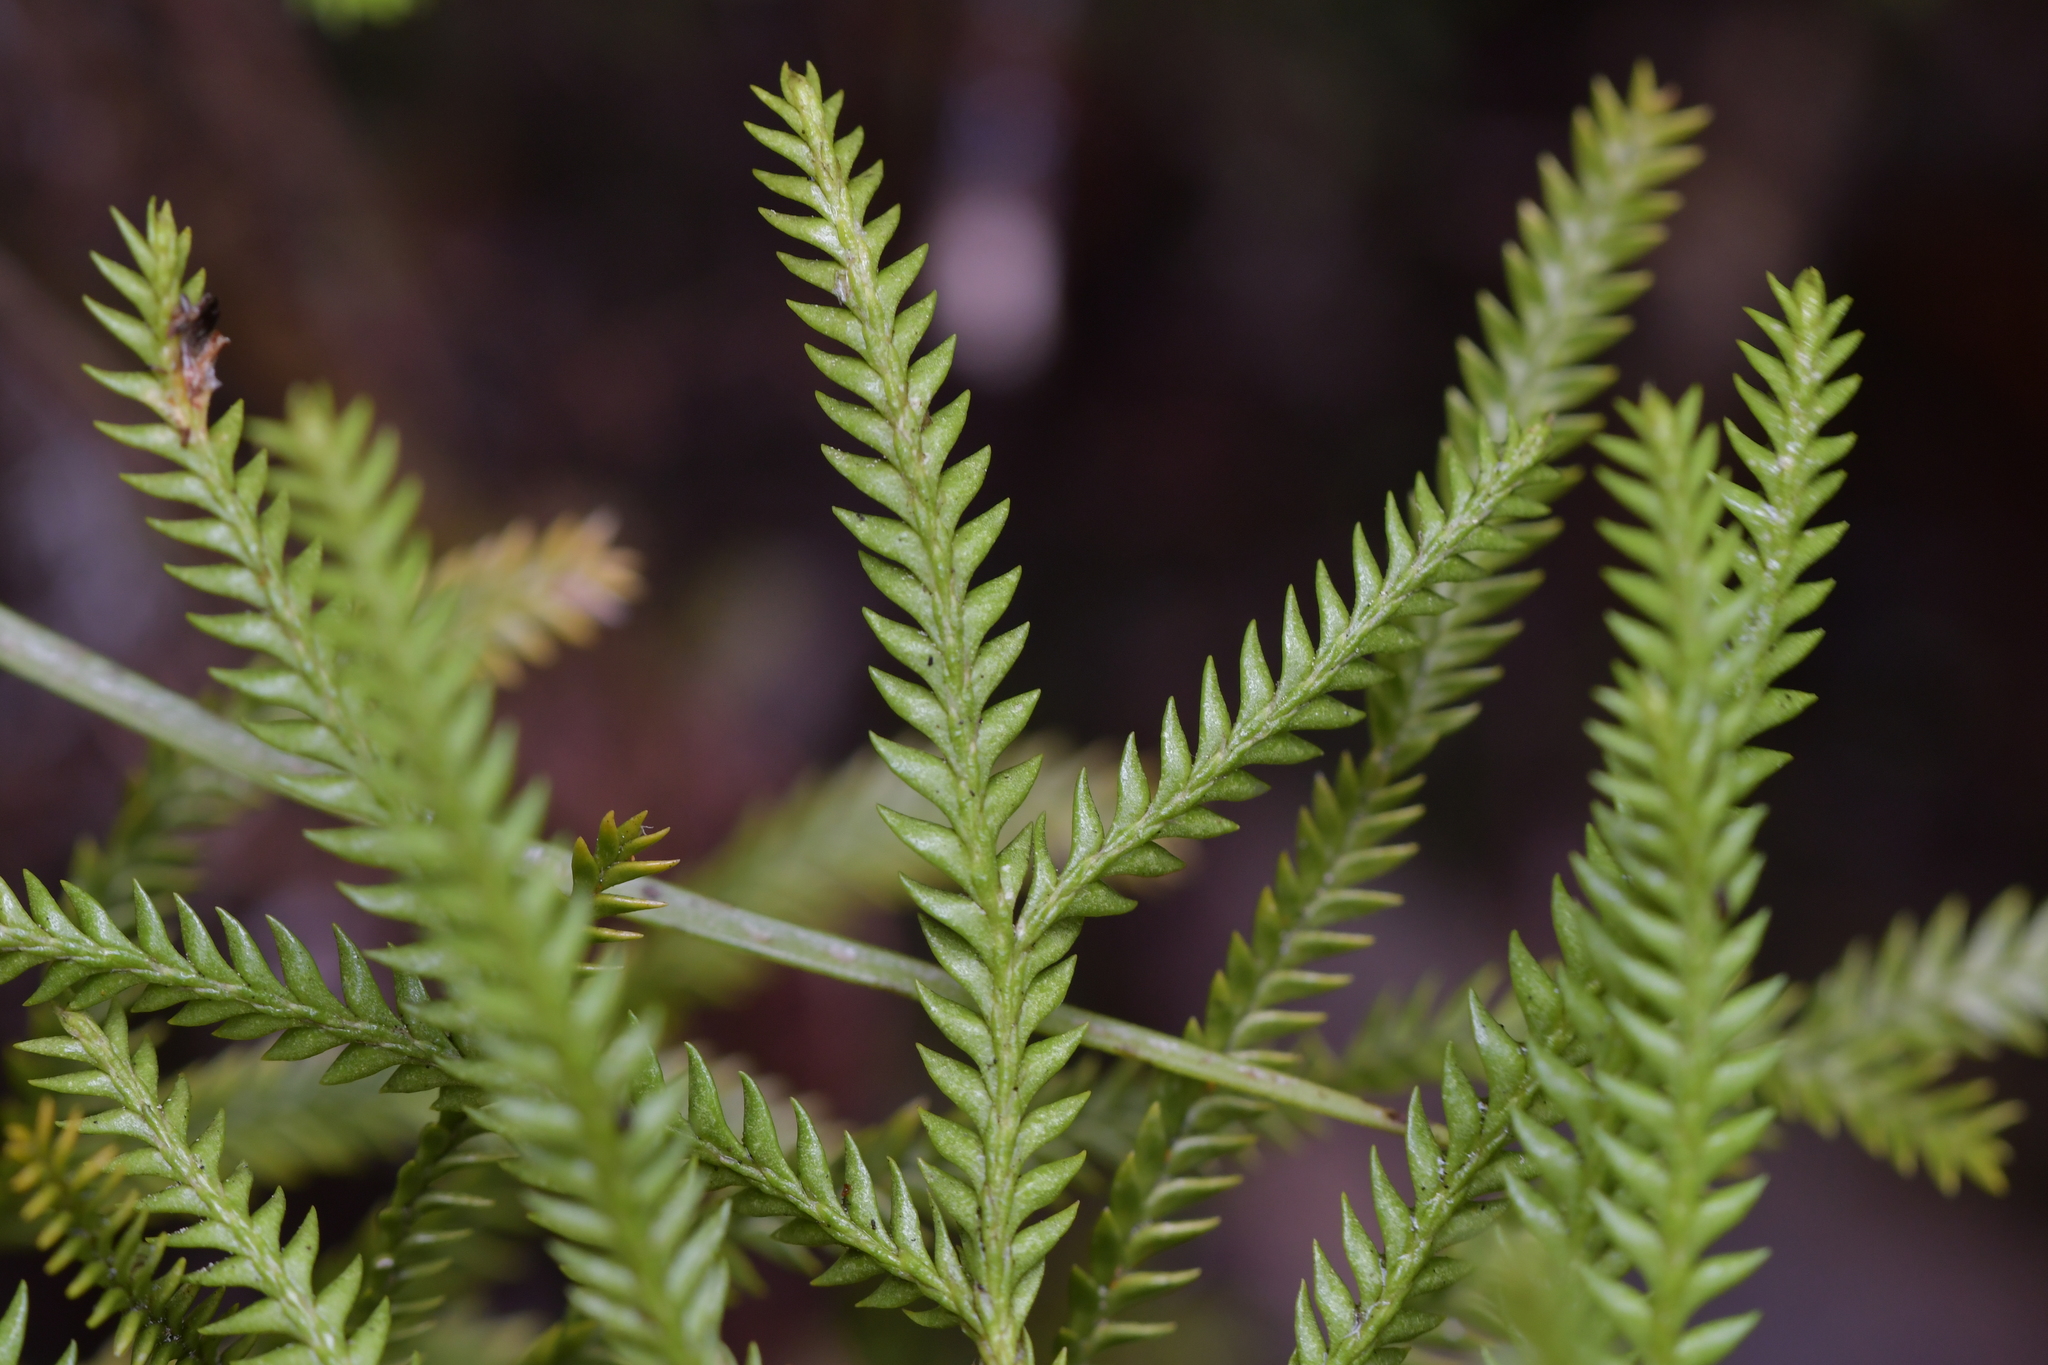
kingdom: Plantae
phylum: Tracheophyta
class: Lycopodiopsida
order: Lycopodiales
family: Lycopodiaceae
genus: Lycopodium
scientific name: Lycopodium volubile
